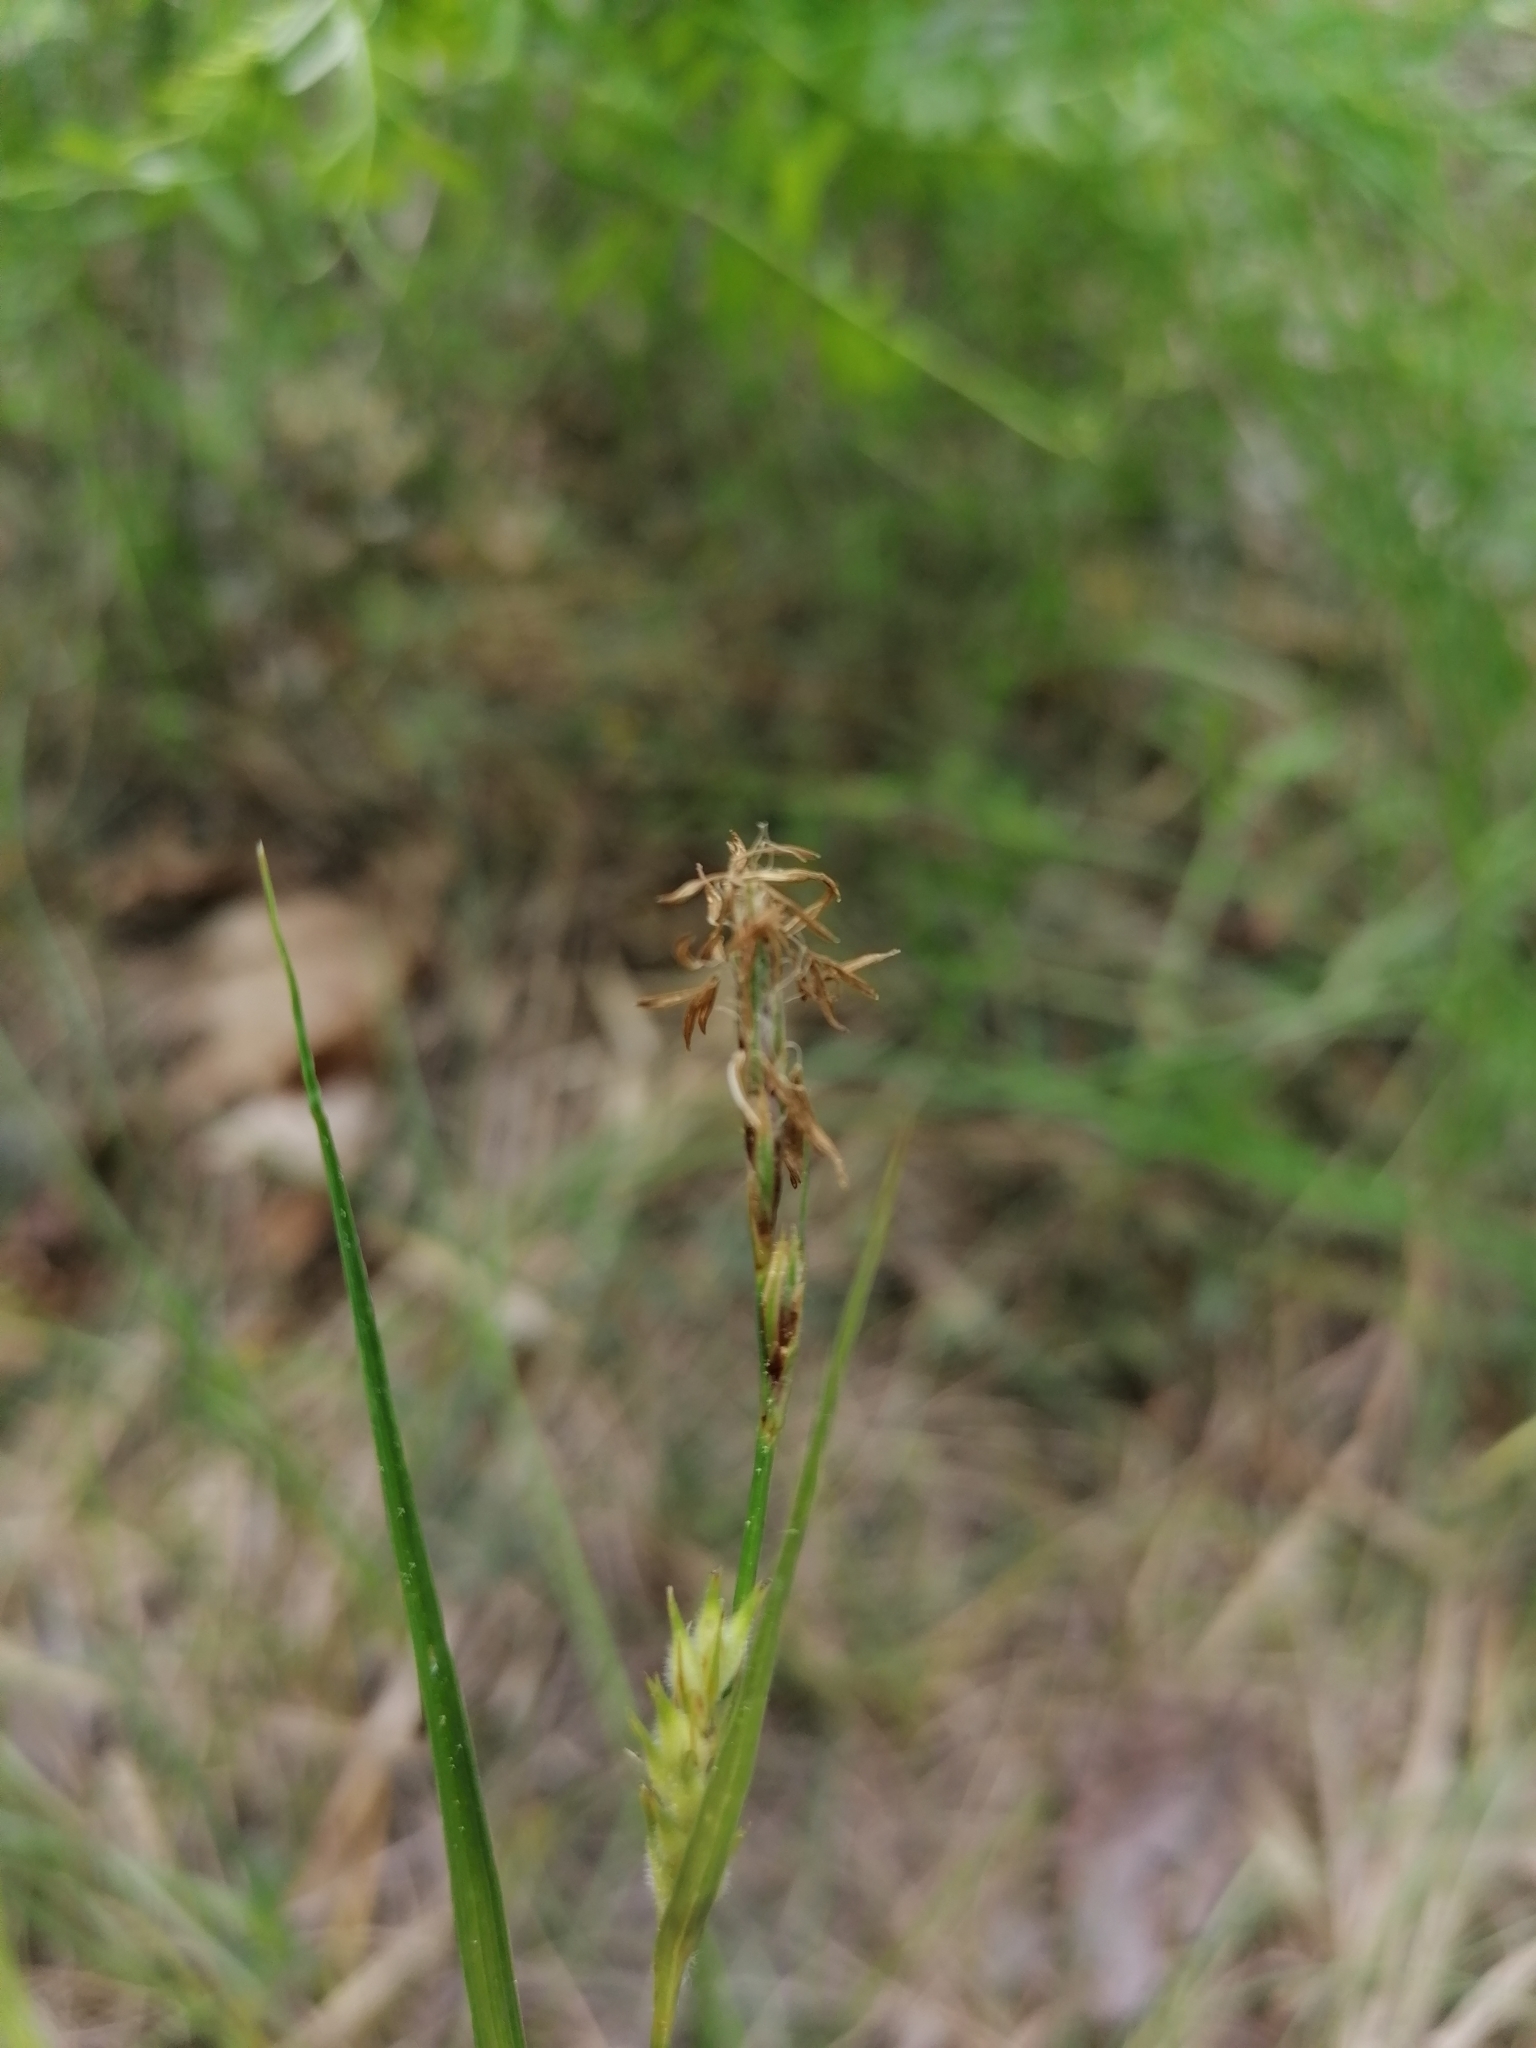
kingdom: Plantae
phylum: Tracheophyta
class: Liliopsida
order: Poales
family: Cyperaceae
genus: Carex
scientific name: Carex hirta
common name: Hairy sedge
